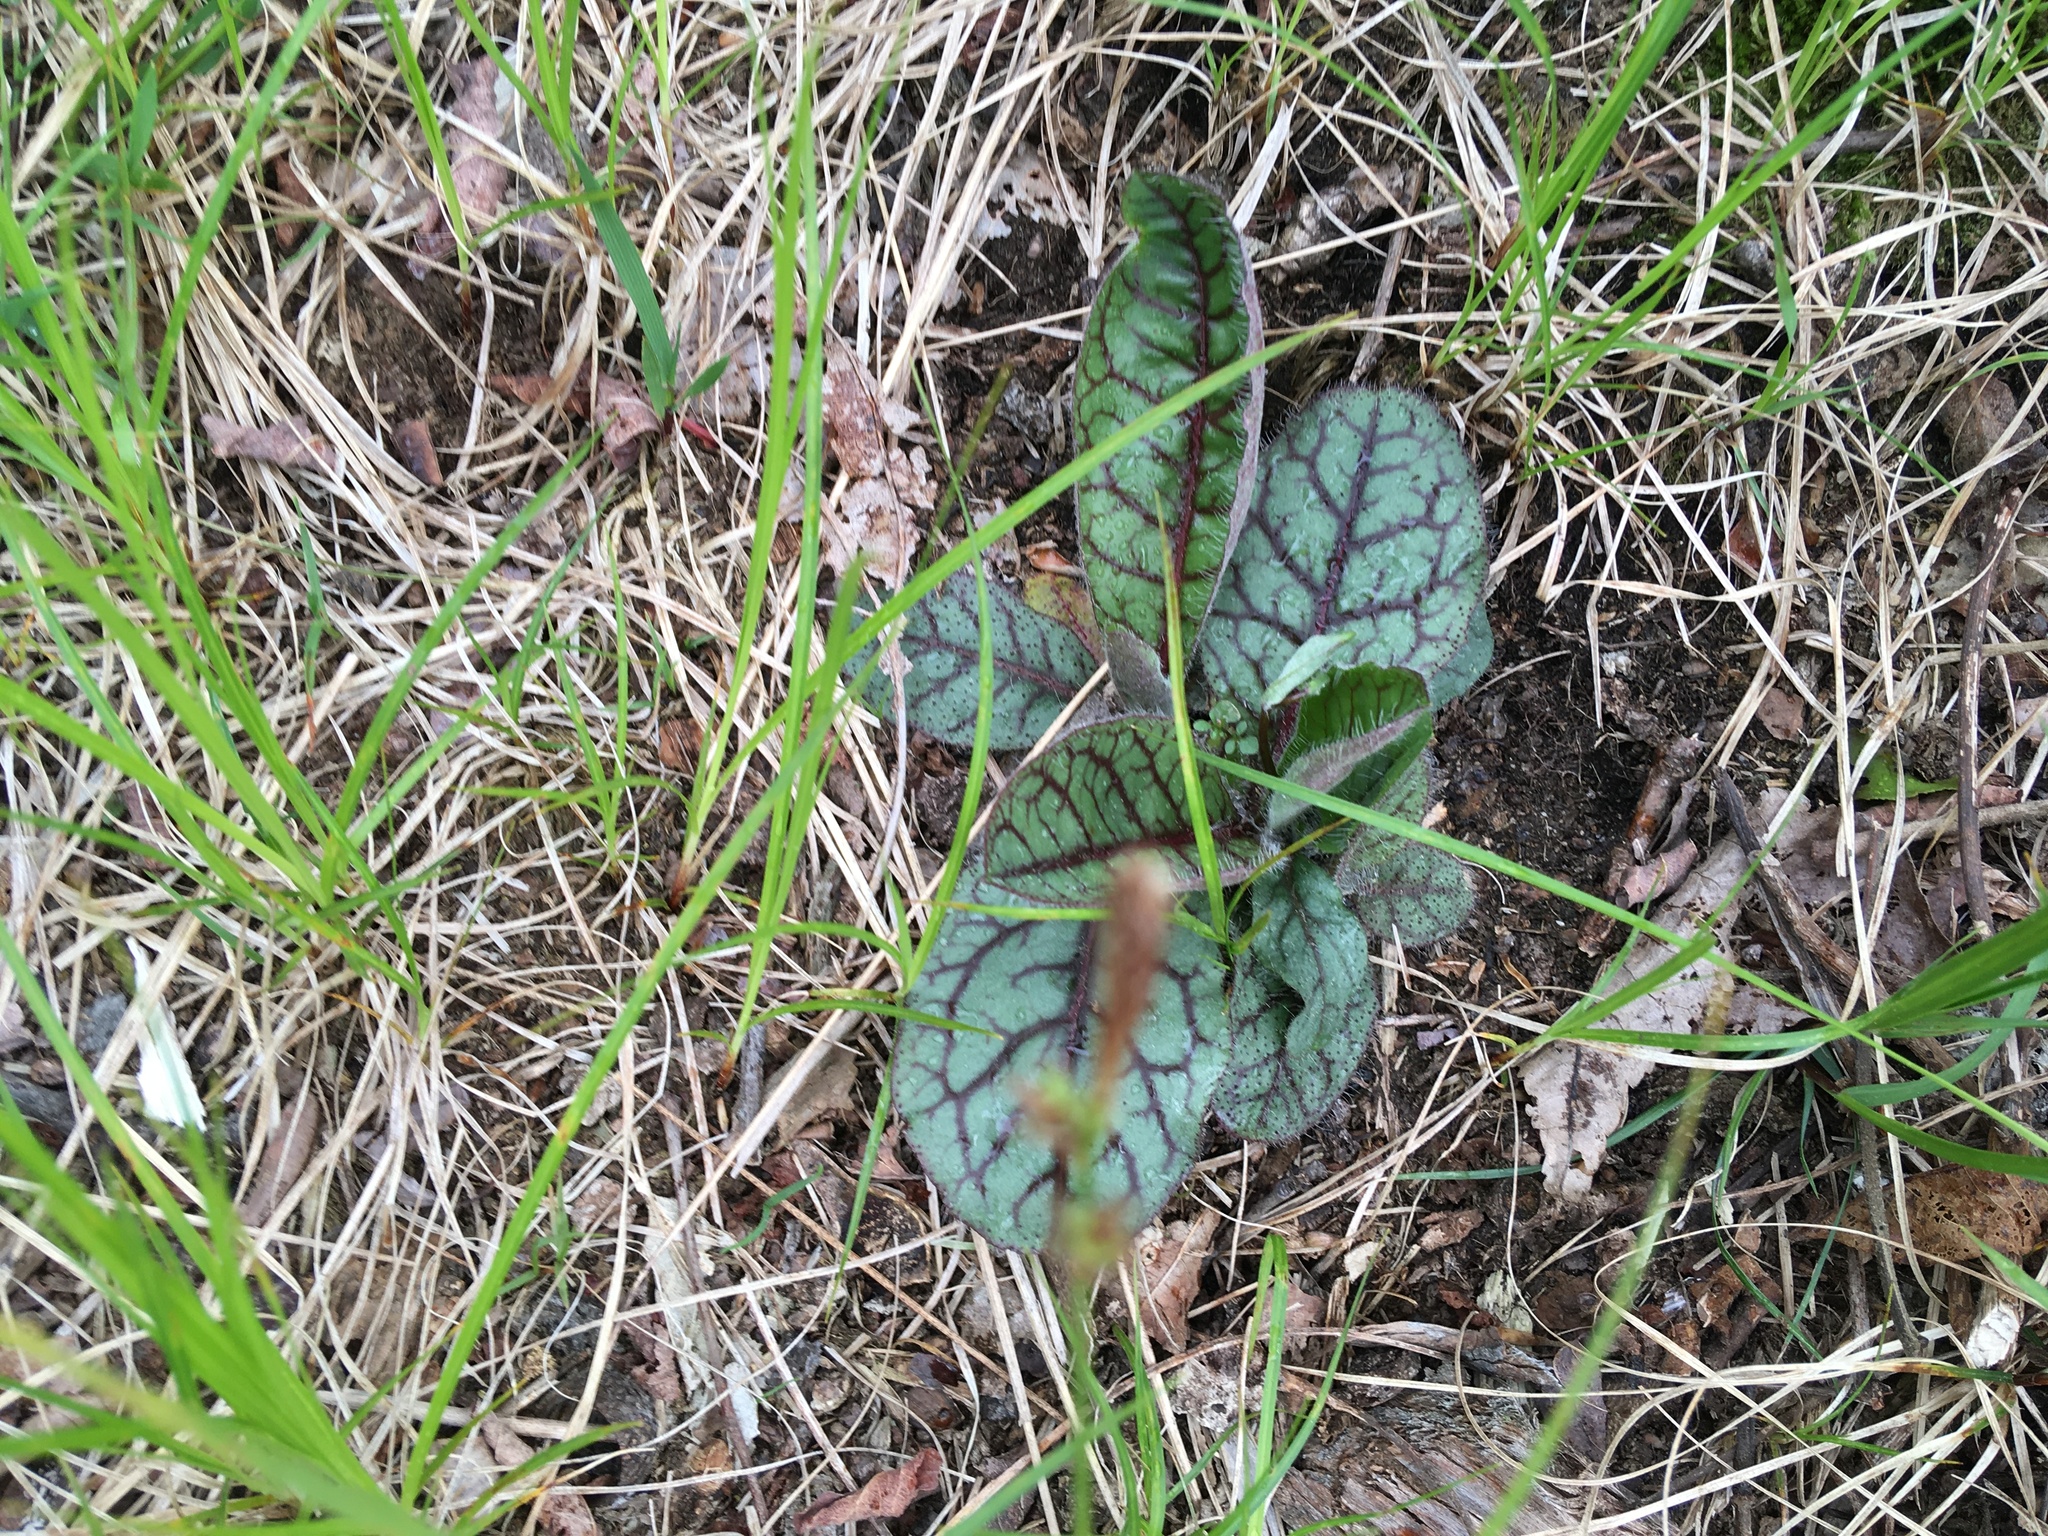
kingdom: Plantae
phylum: Tracheophyta
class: Magnoliopsida
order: Asterales
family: Asteraceae
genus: Hieracium
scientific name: Hieracium venosum
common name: Rattlesnake hawkweed
